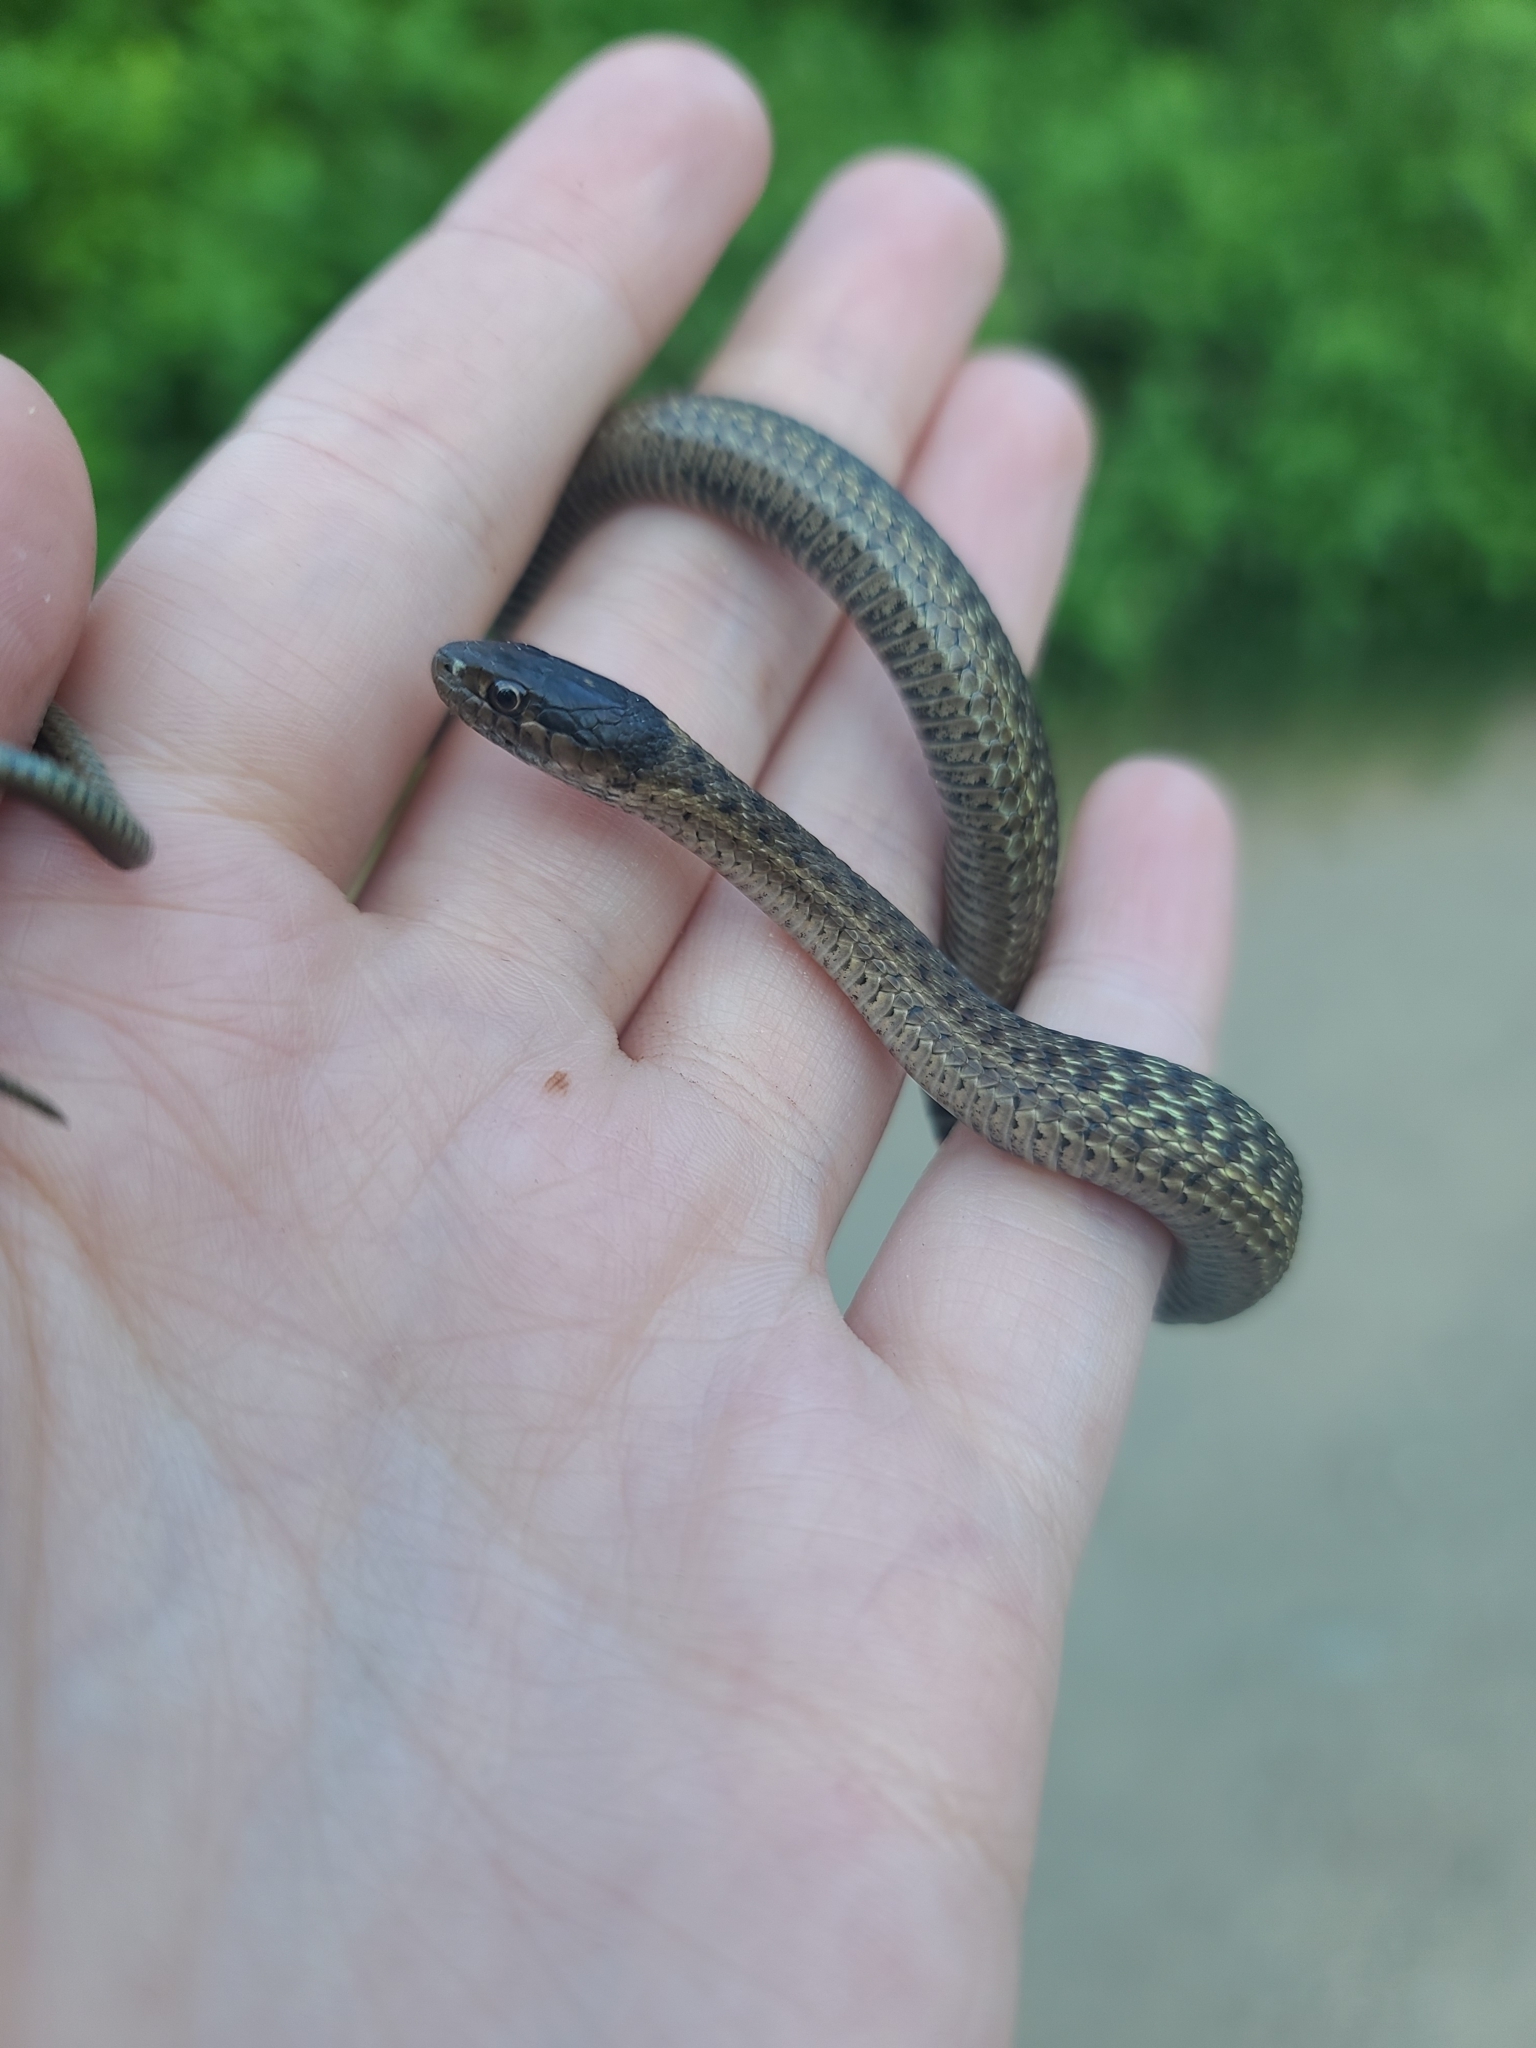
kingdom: Animalia
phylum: Chordata
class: Squamata
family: Colubridae
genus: Thamnophis
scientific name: Thamnophis elegans
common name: Western terrestrial garter snake
